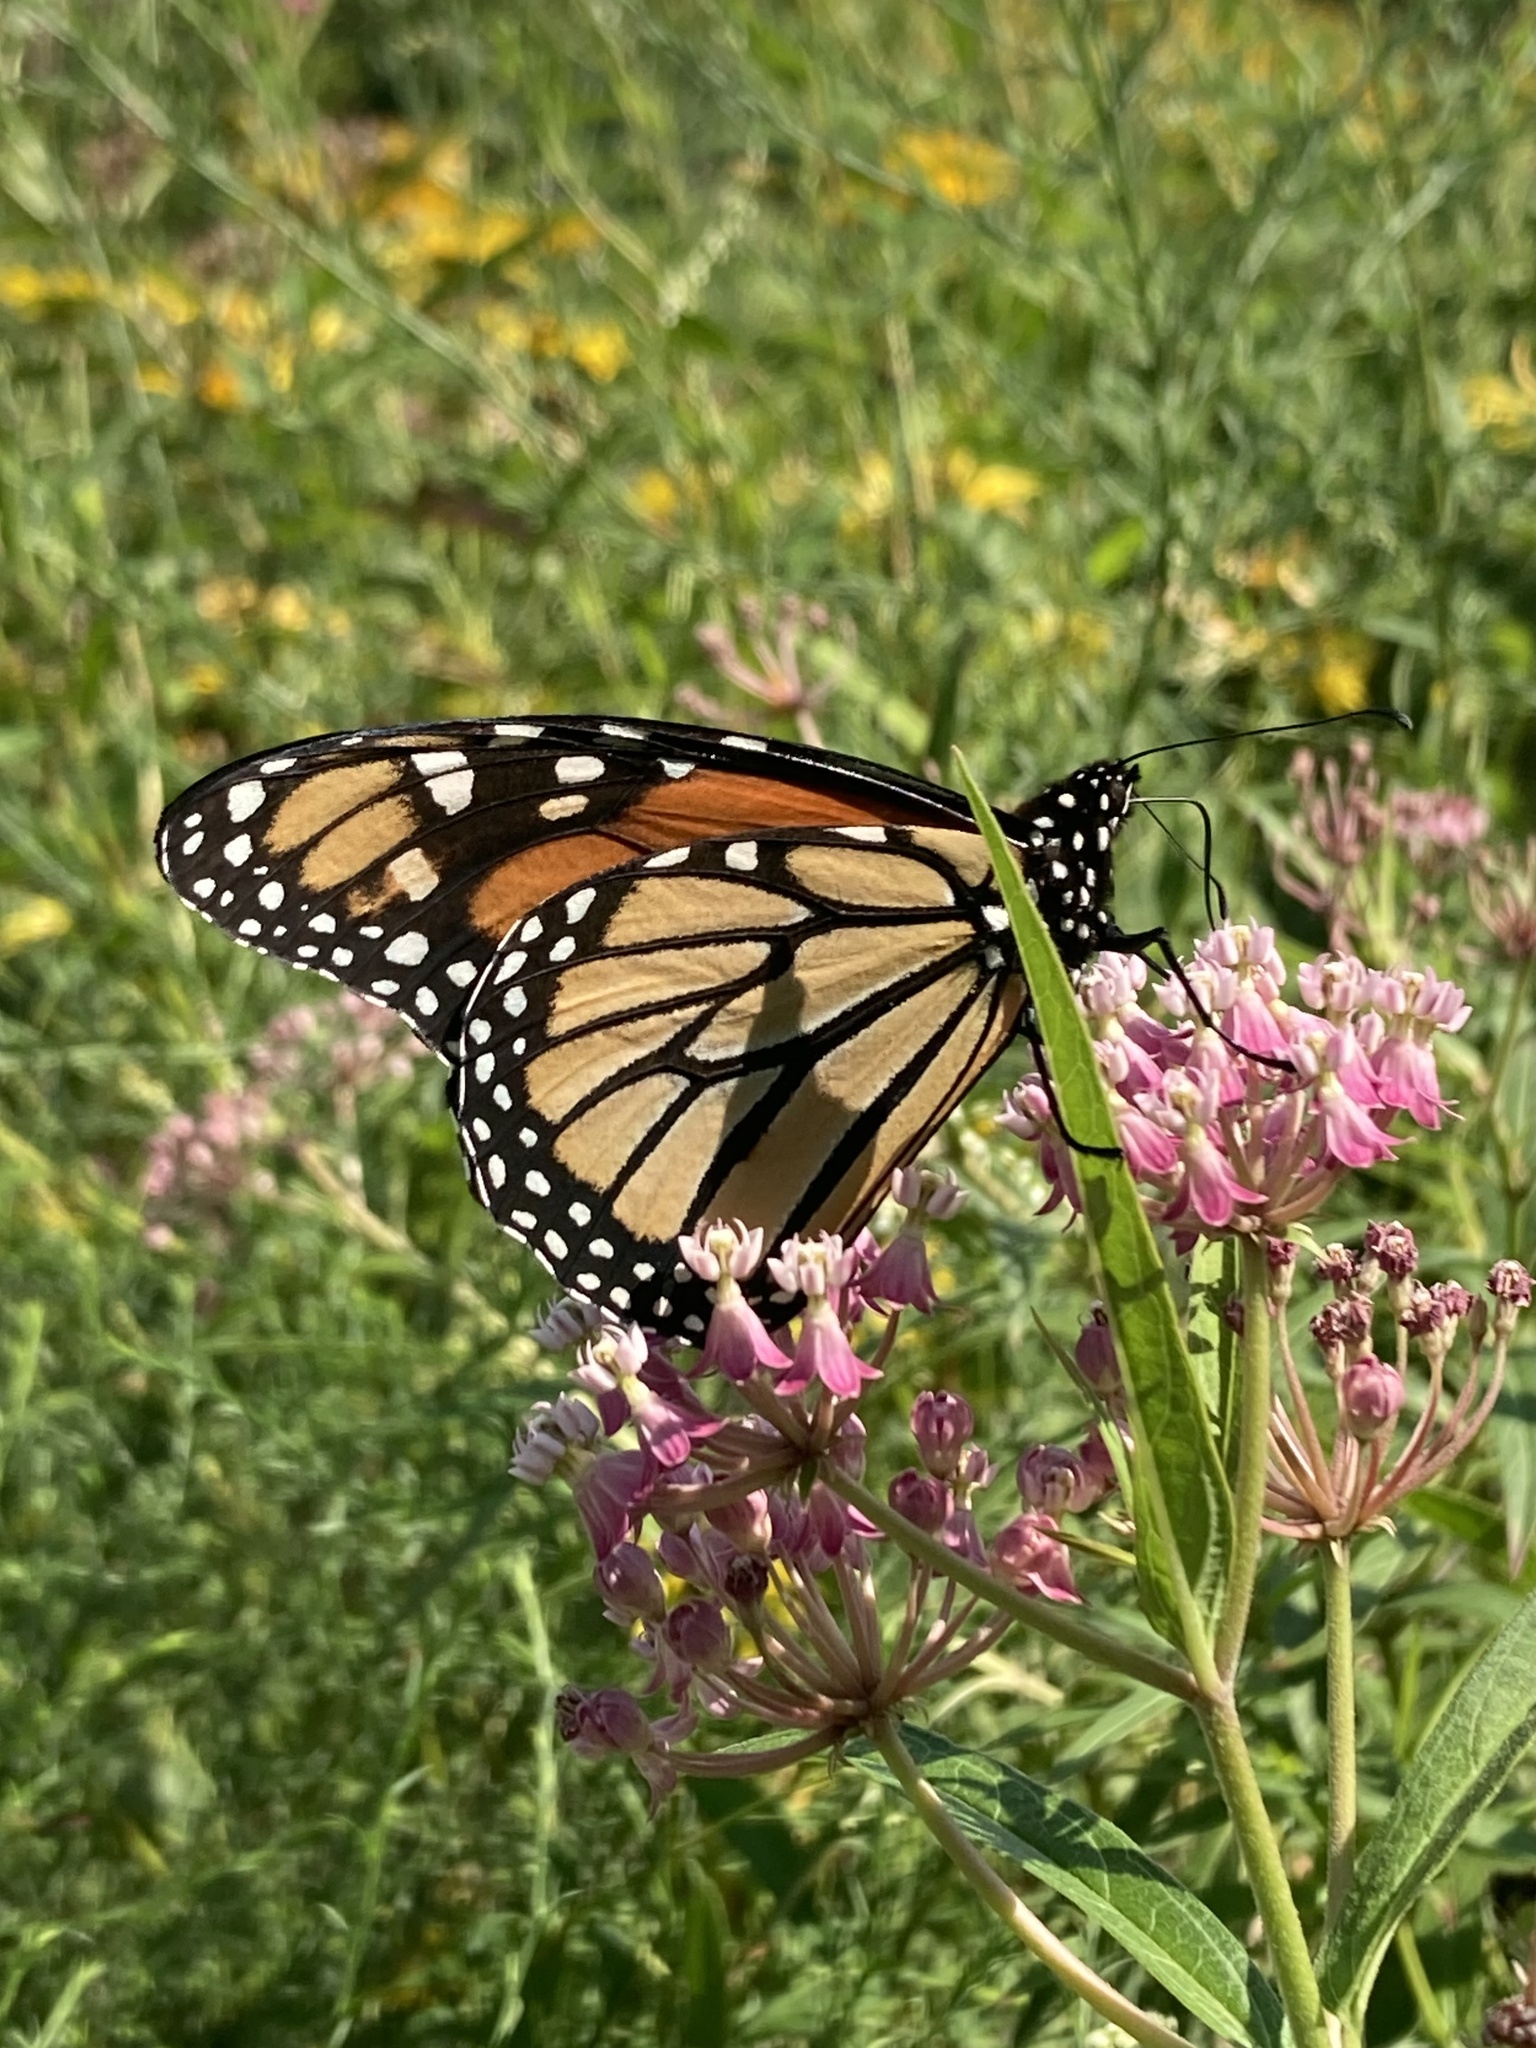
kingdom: Animalia
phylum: Arthropoda
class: Insecta
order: Lepidoptera
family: Nymphalidae
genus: Danaus
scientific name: Danaus plexippus
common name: Monarch
